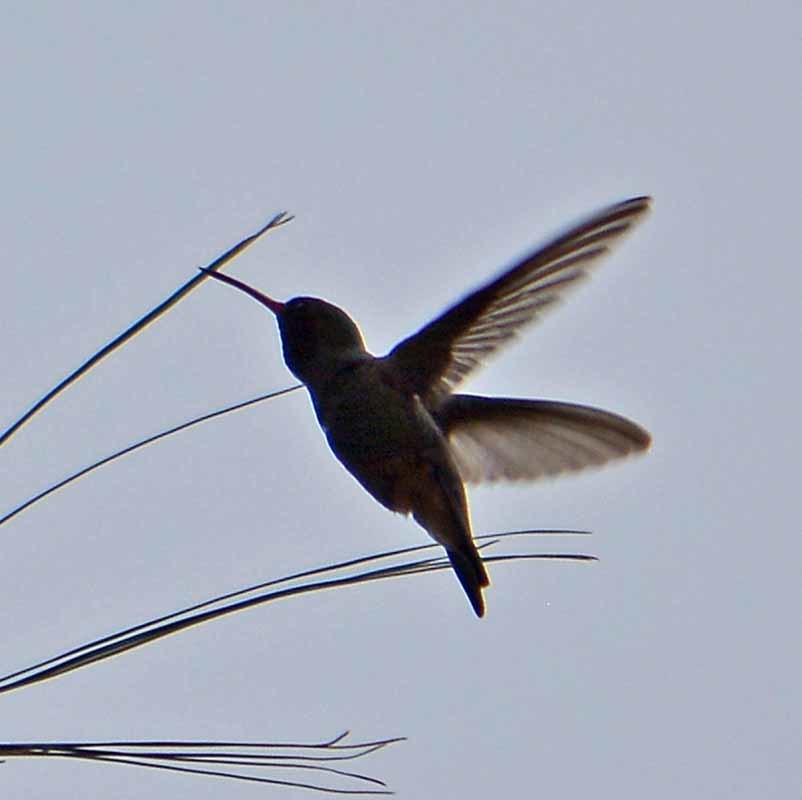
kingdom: Animalia
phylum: Chordata
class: Aves
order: Apodiformes
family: Trochilidae
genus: Cynanthus
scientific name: Cynanthus latirostris
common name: Broad-billed hummingbird
